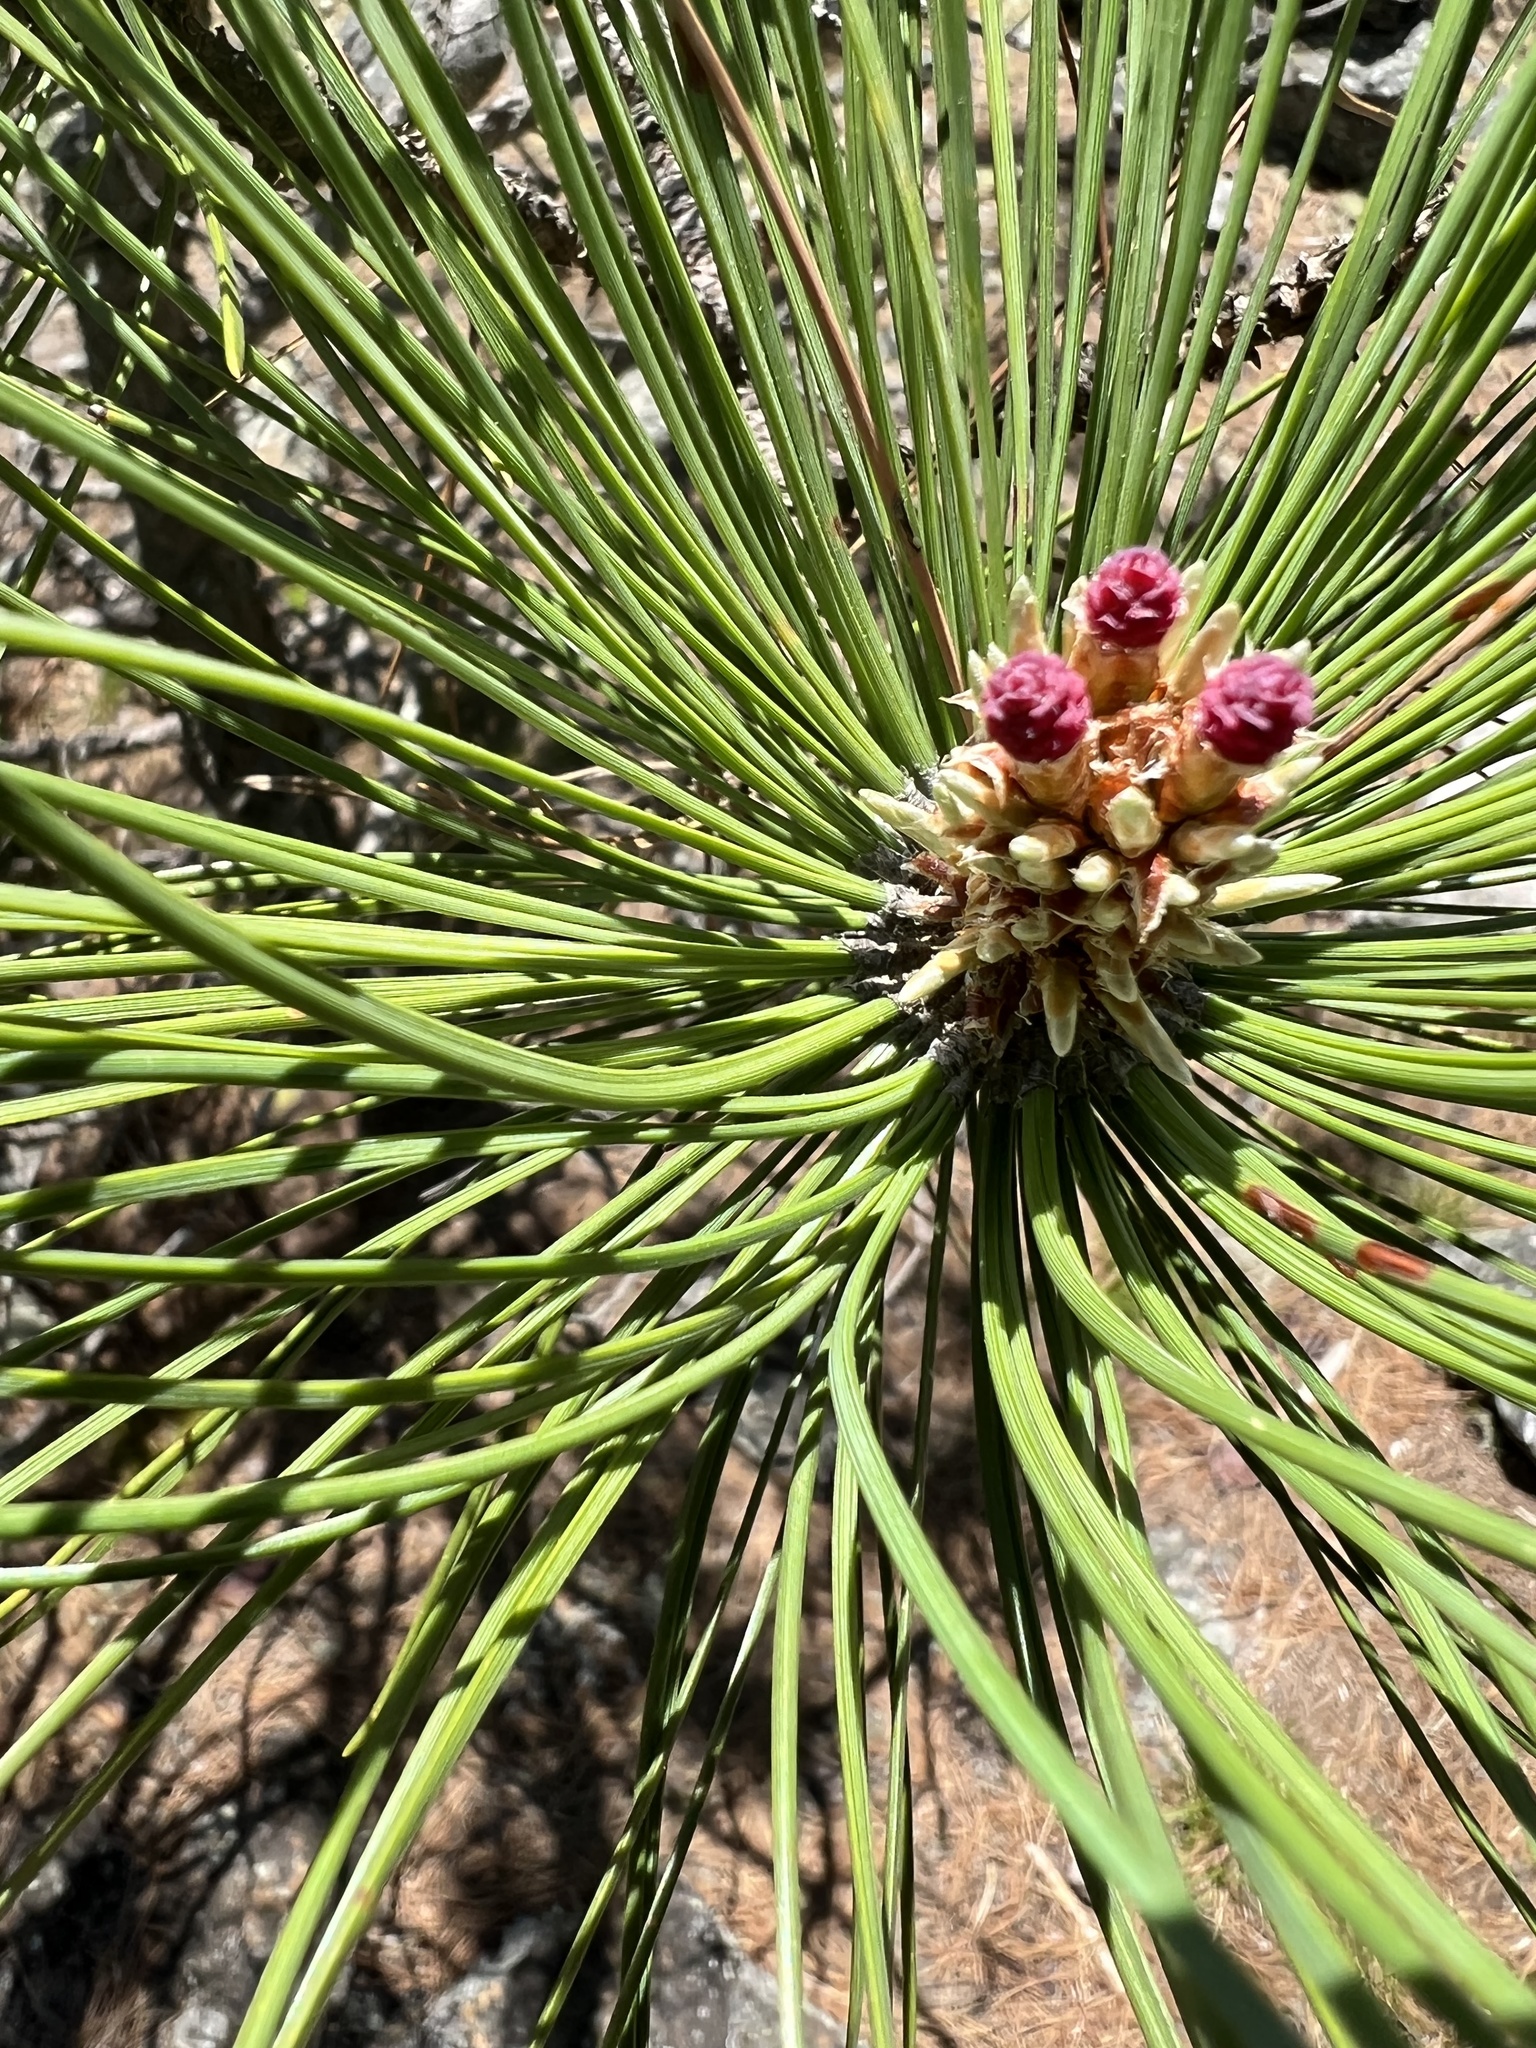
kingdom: Plantae
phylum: Tracheophyta
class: Pinopsida
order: Pinales
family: Pinaceae
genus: Pinus
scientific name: Pinus resinosa
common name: Norway pine
